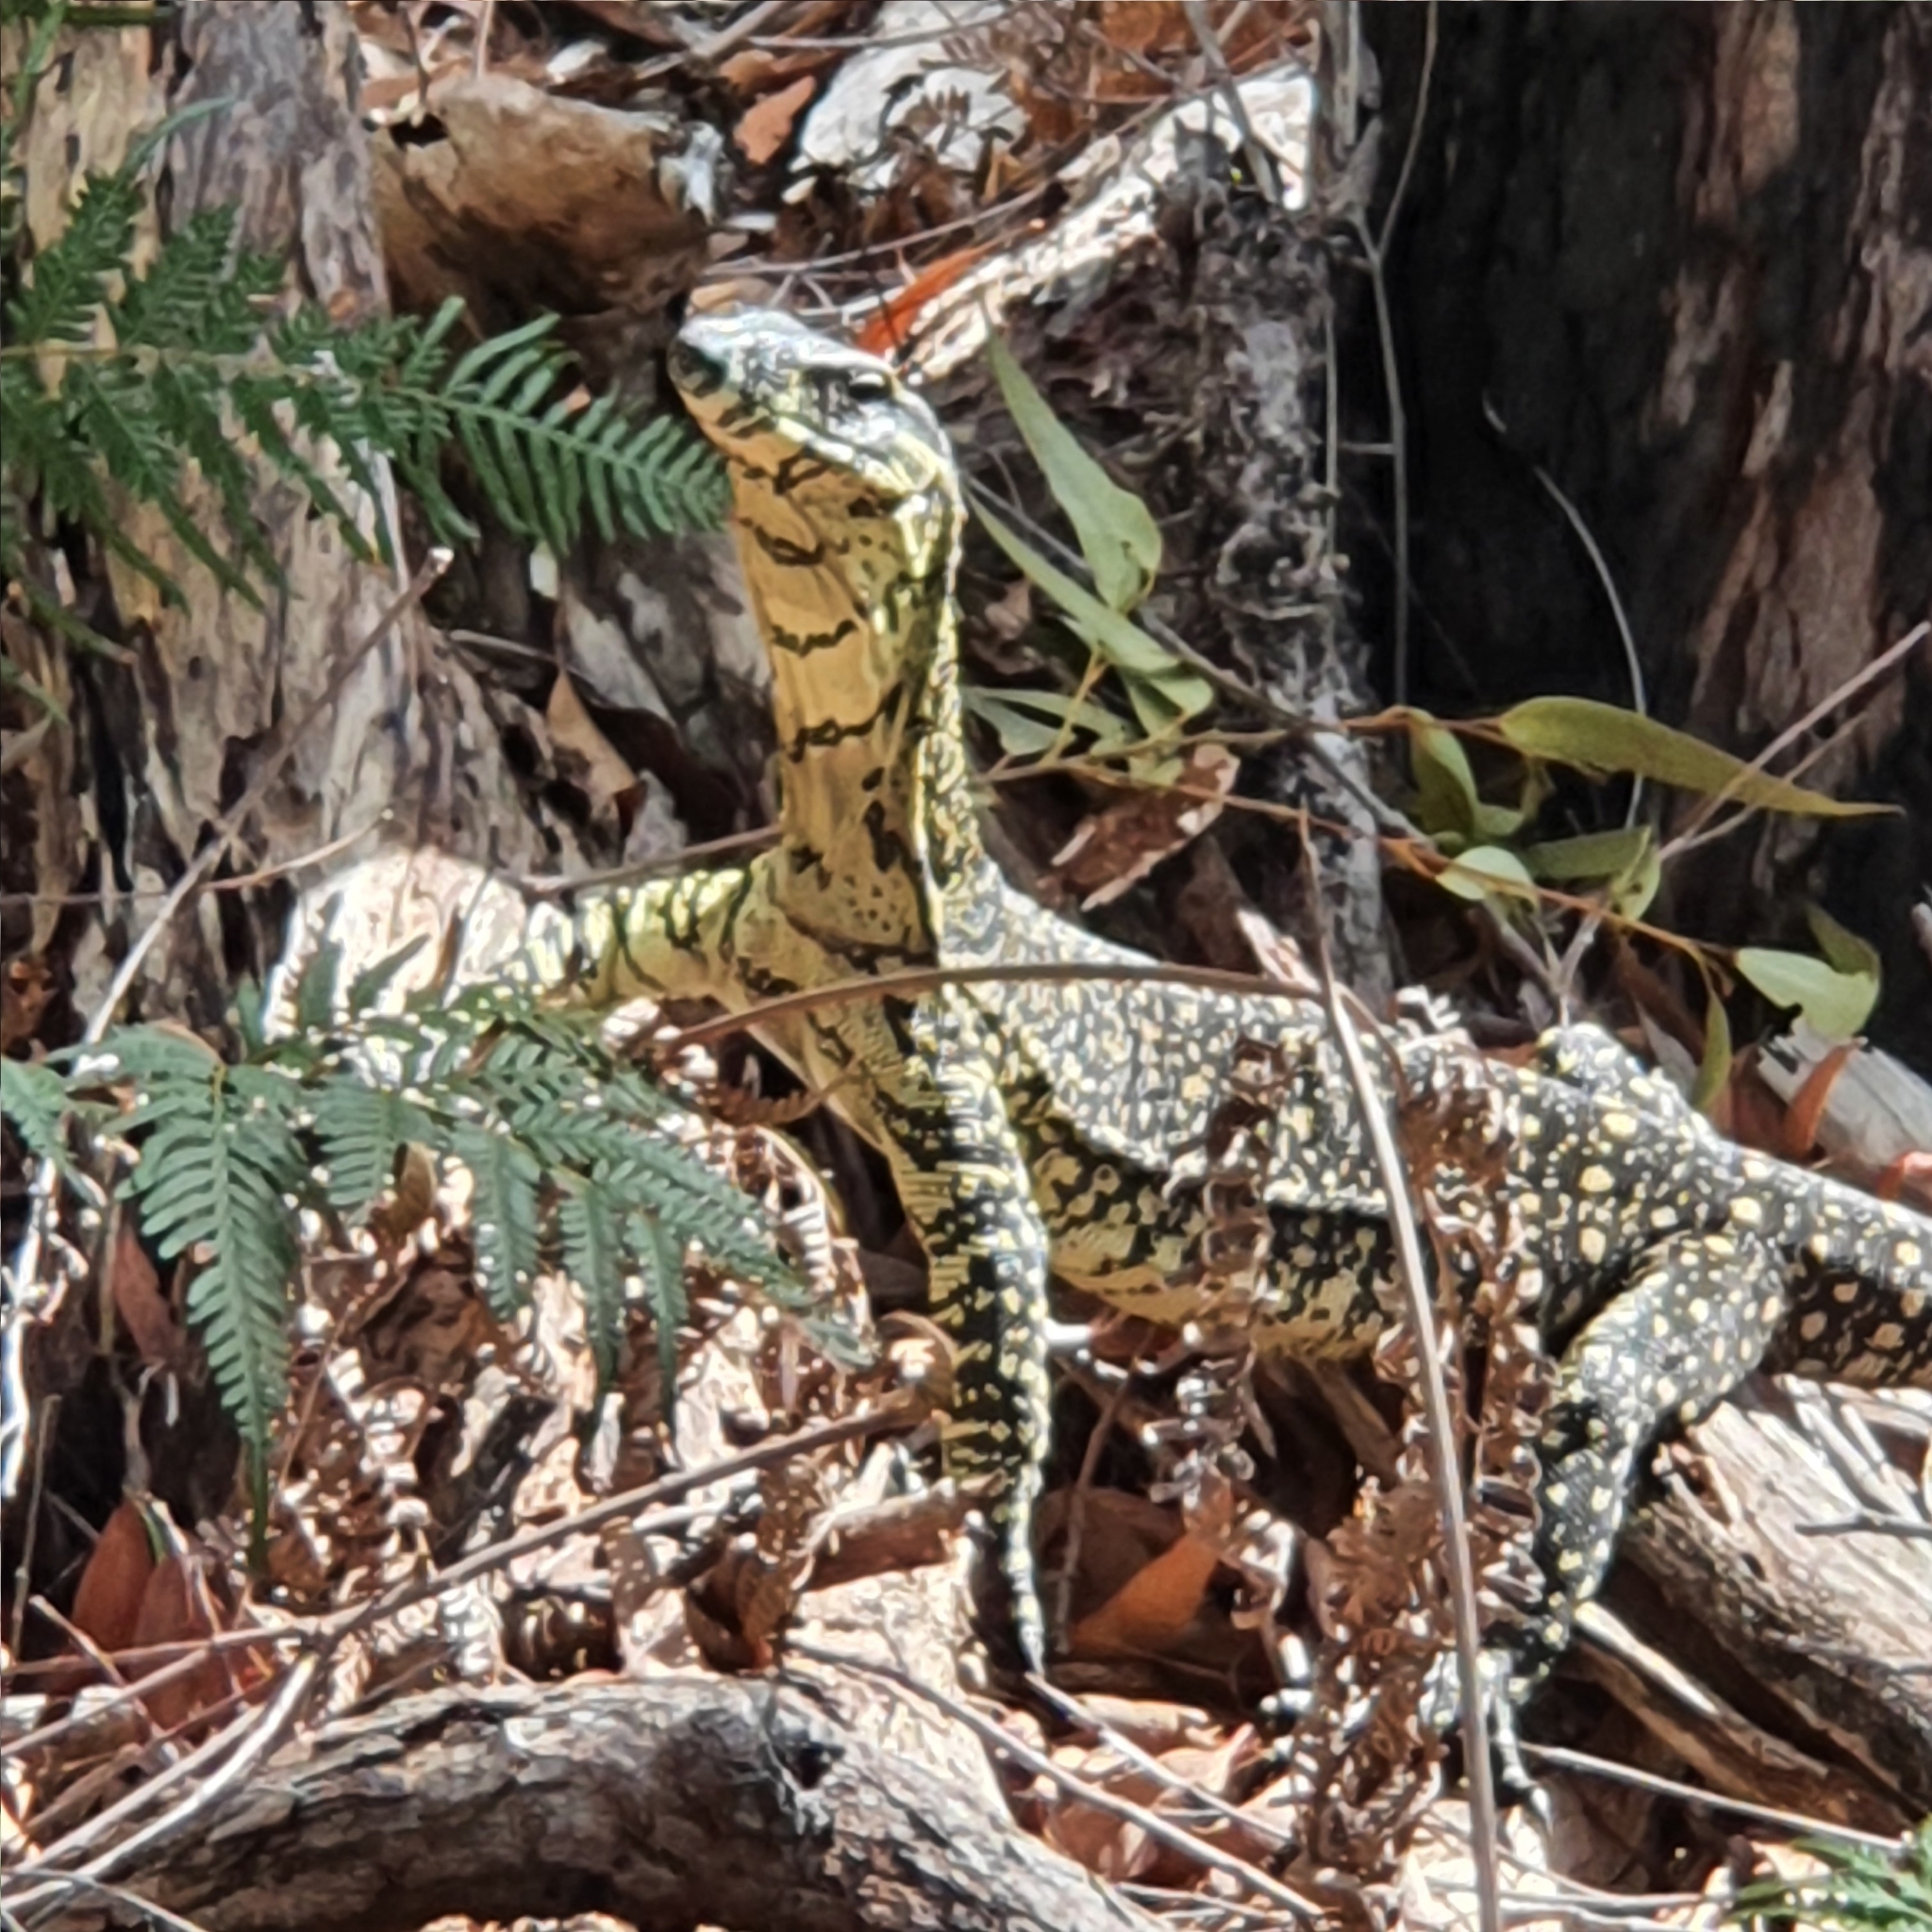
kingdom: Animalia
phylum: Chordata
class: Squamata
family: Varanidae
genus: Varanus
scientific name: Varanus varius
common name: Lace monitor
